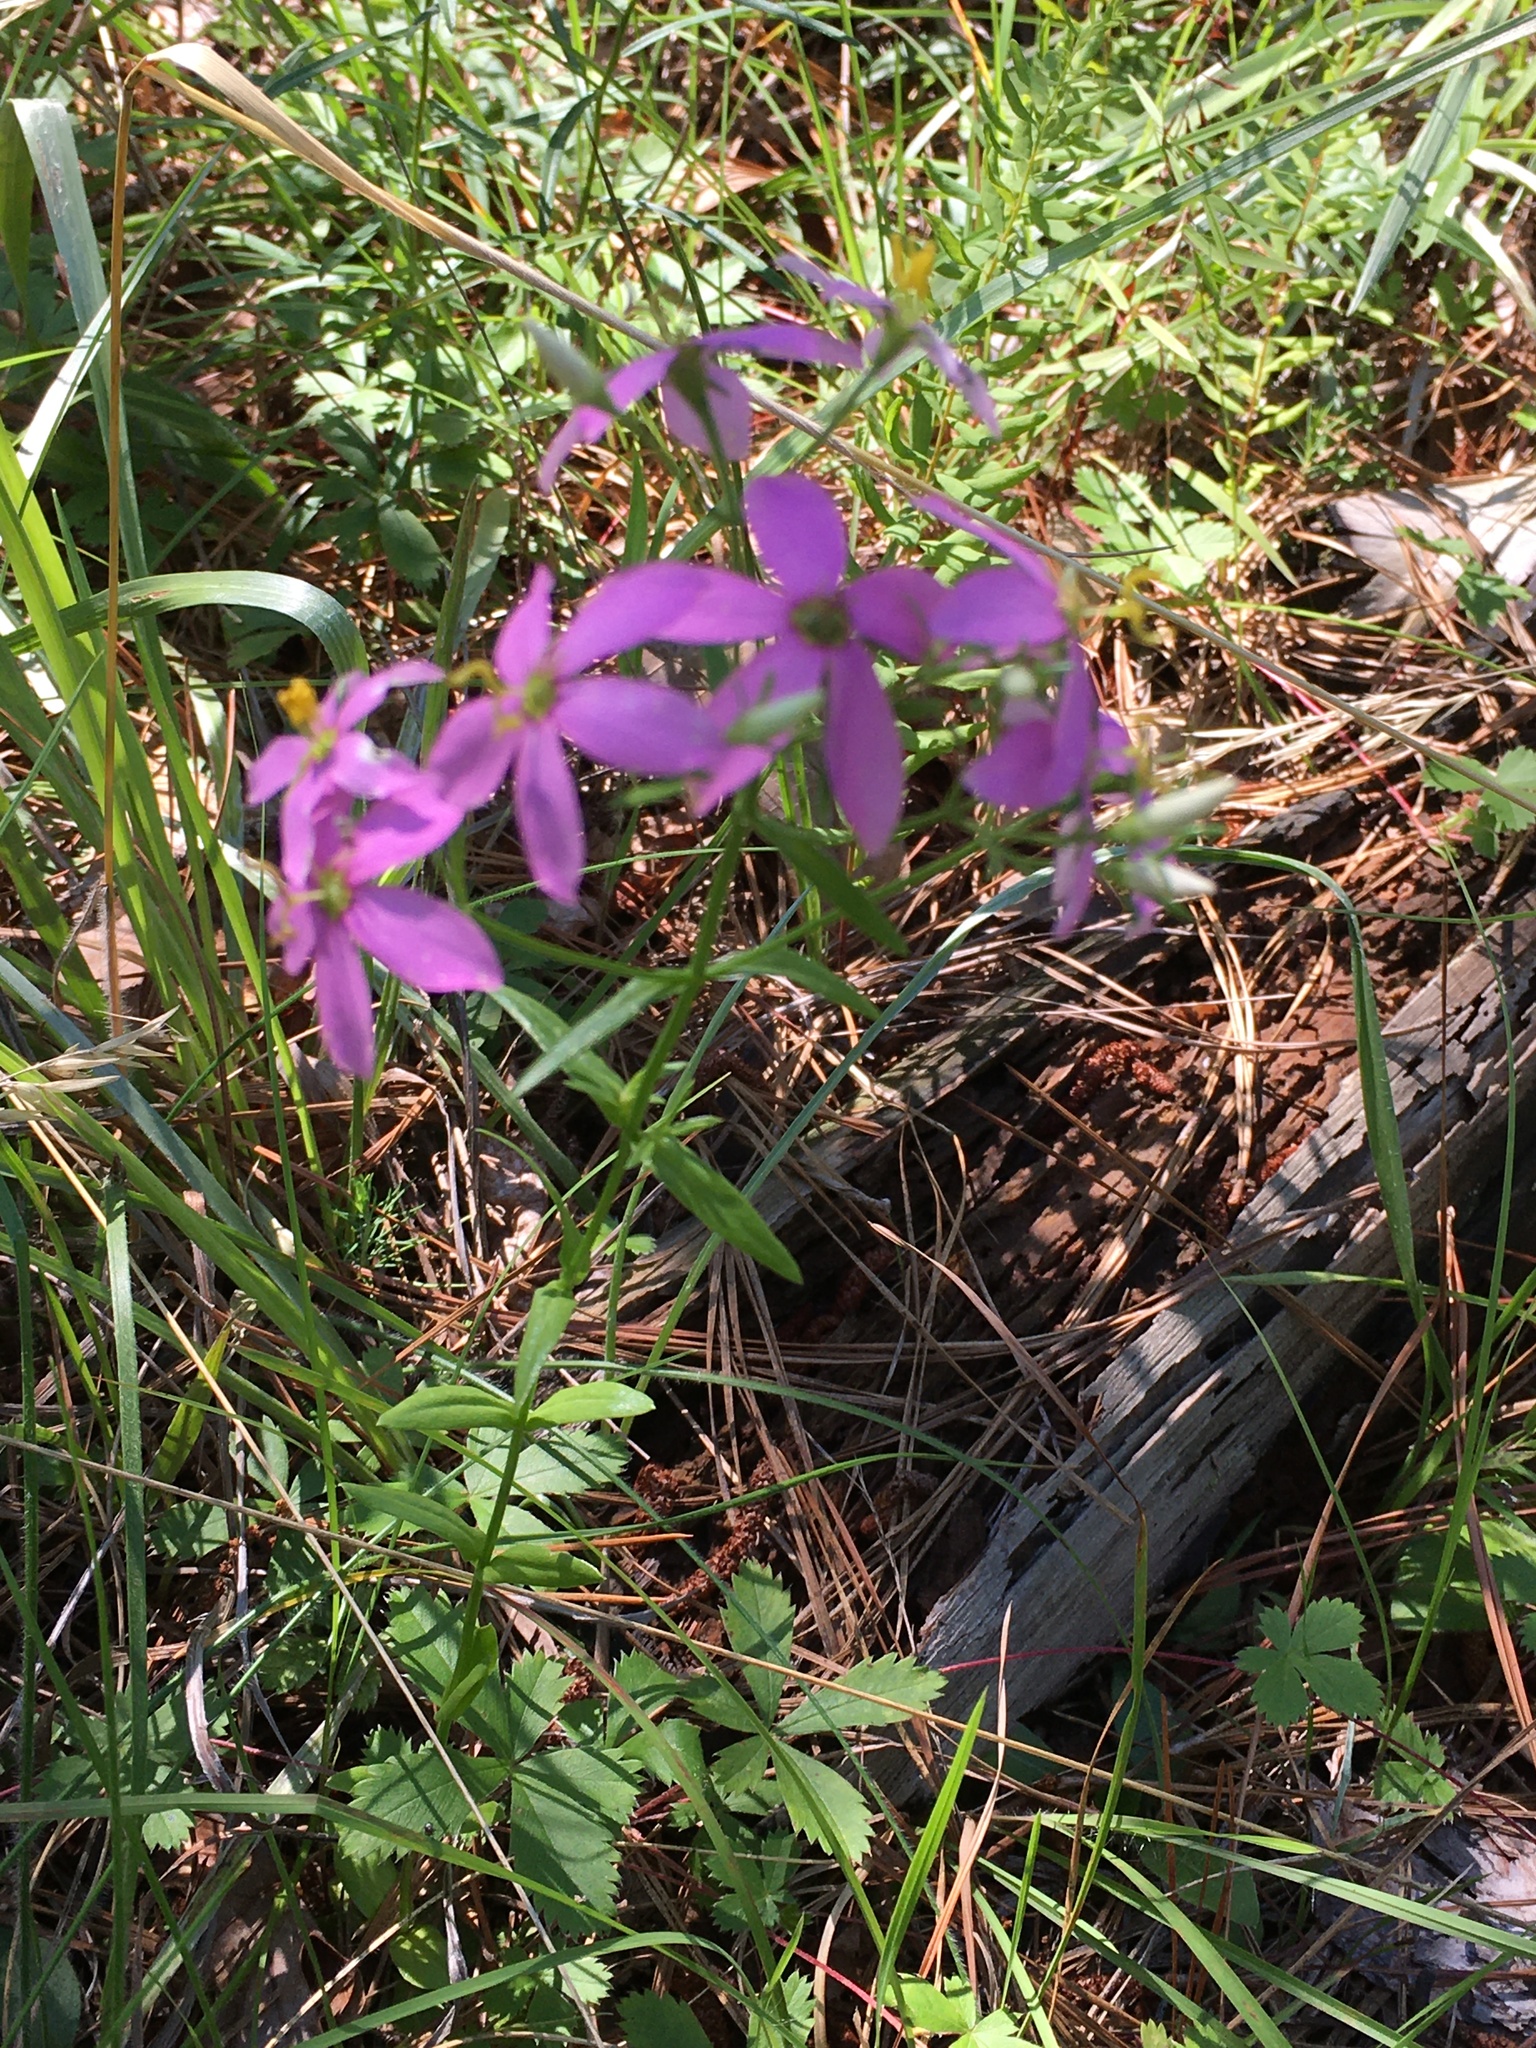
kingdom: Plantae
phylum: Tracheophyta
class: Magnoliopsida
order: Gentianales
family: Gentianaceae
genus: Sabatia
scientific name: Sabatia angularis
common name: Rose-pink
